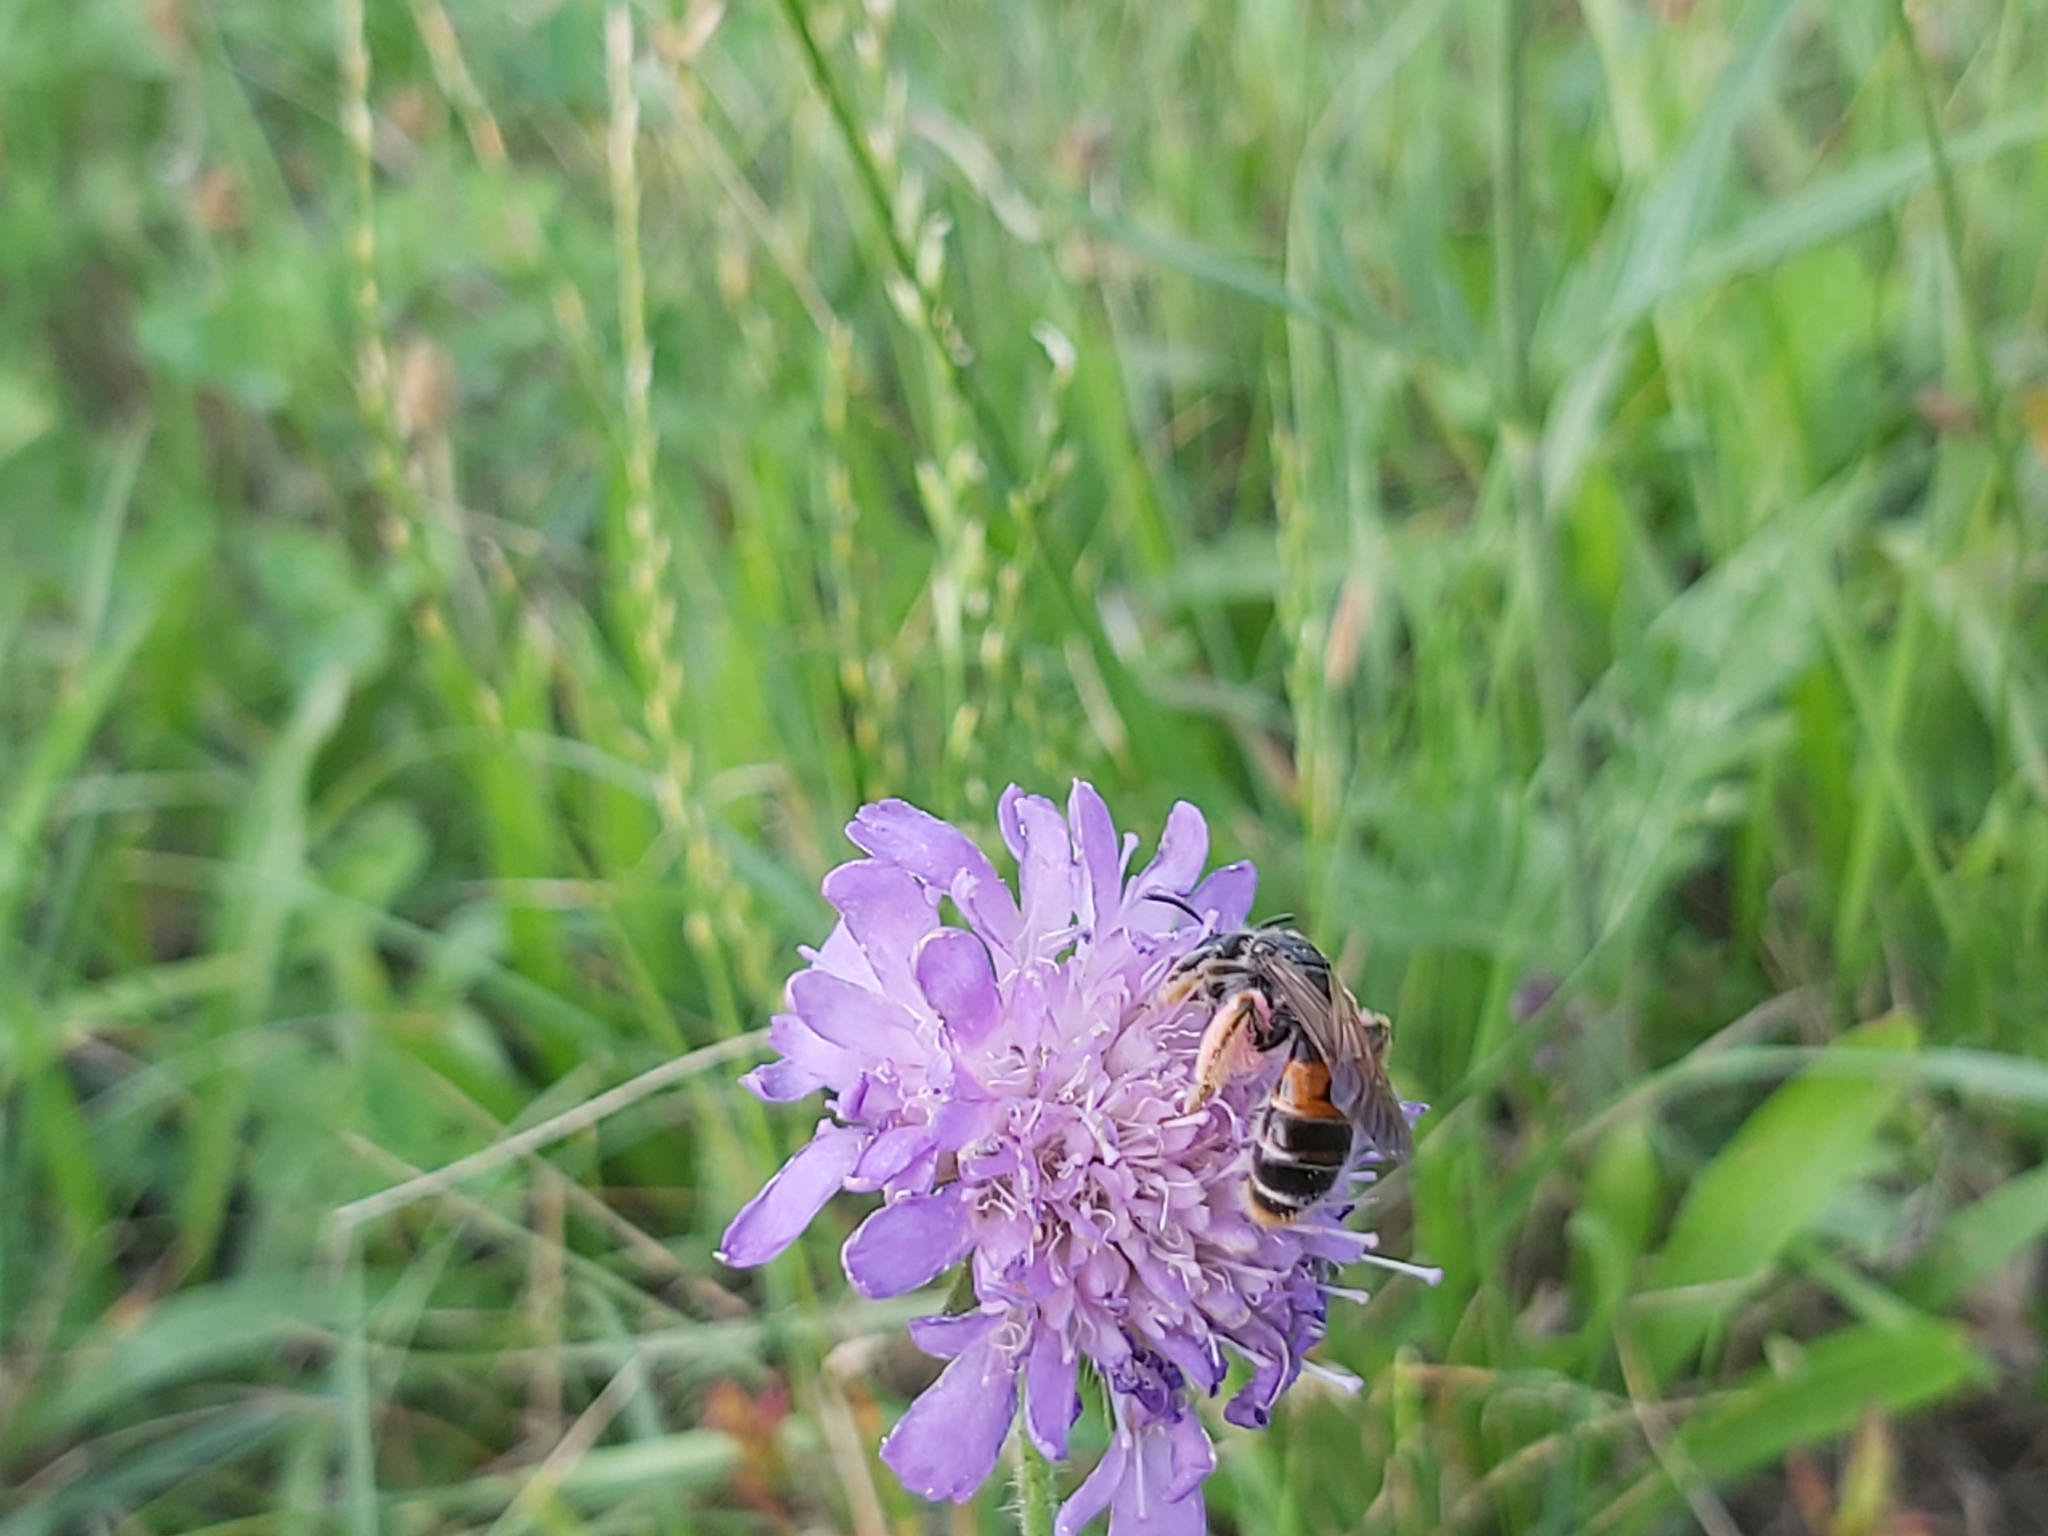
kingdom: Animalia
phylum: Arthropoda
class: Insecta
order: Hymenoptera
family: Andrenidae
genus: Andrena
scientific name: Andrena hattorfiana
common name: Large scabious mining bee
